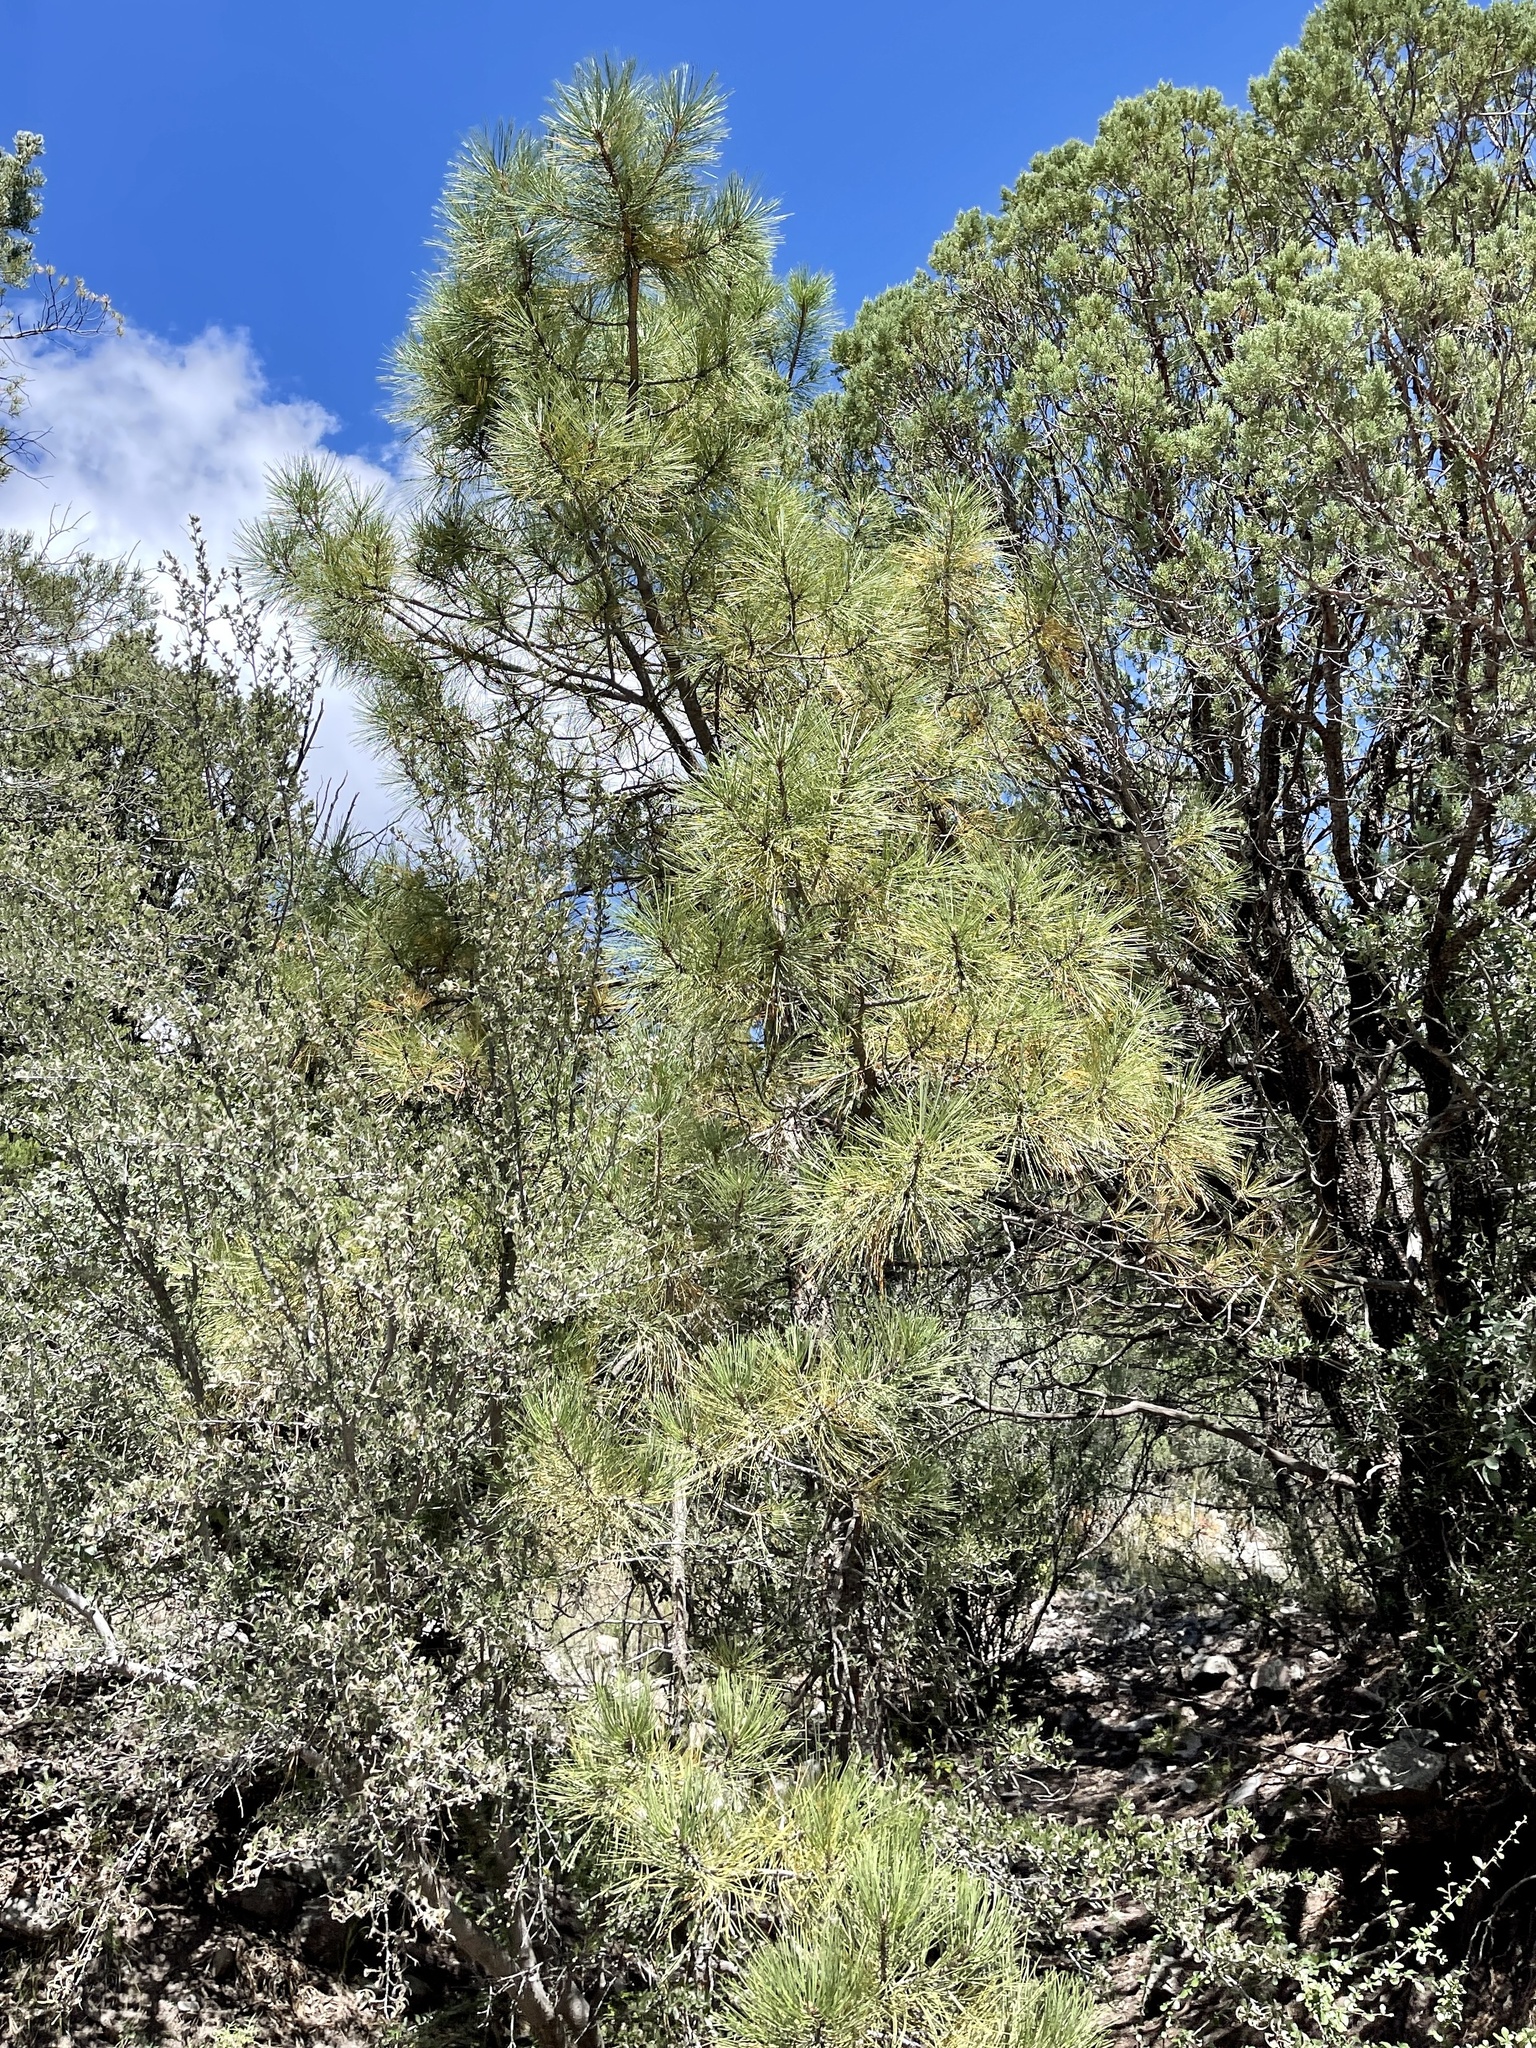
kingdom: Plantae
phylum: Tracheophyta
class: Pinopsida
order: Pinales
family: Pinaceae
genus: Pinus
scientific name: Pinus ponderosa
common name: Western yellow-pine
